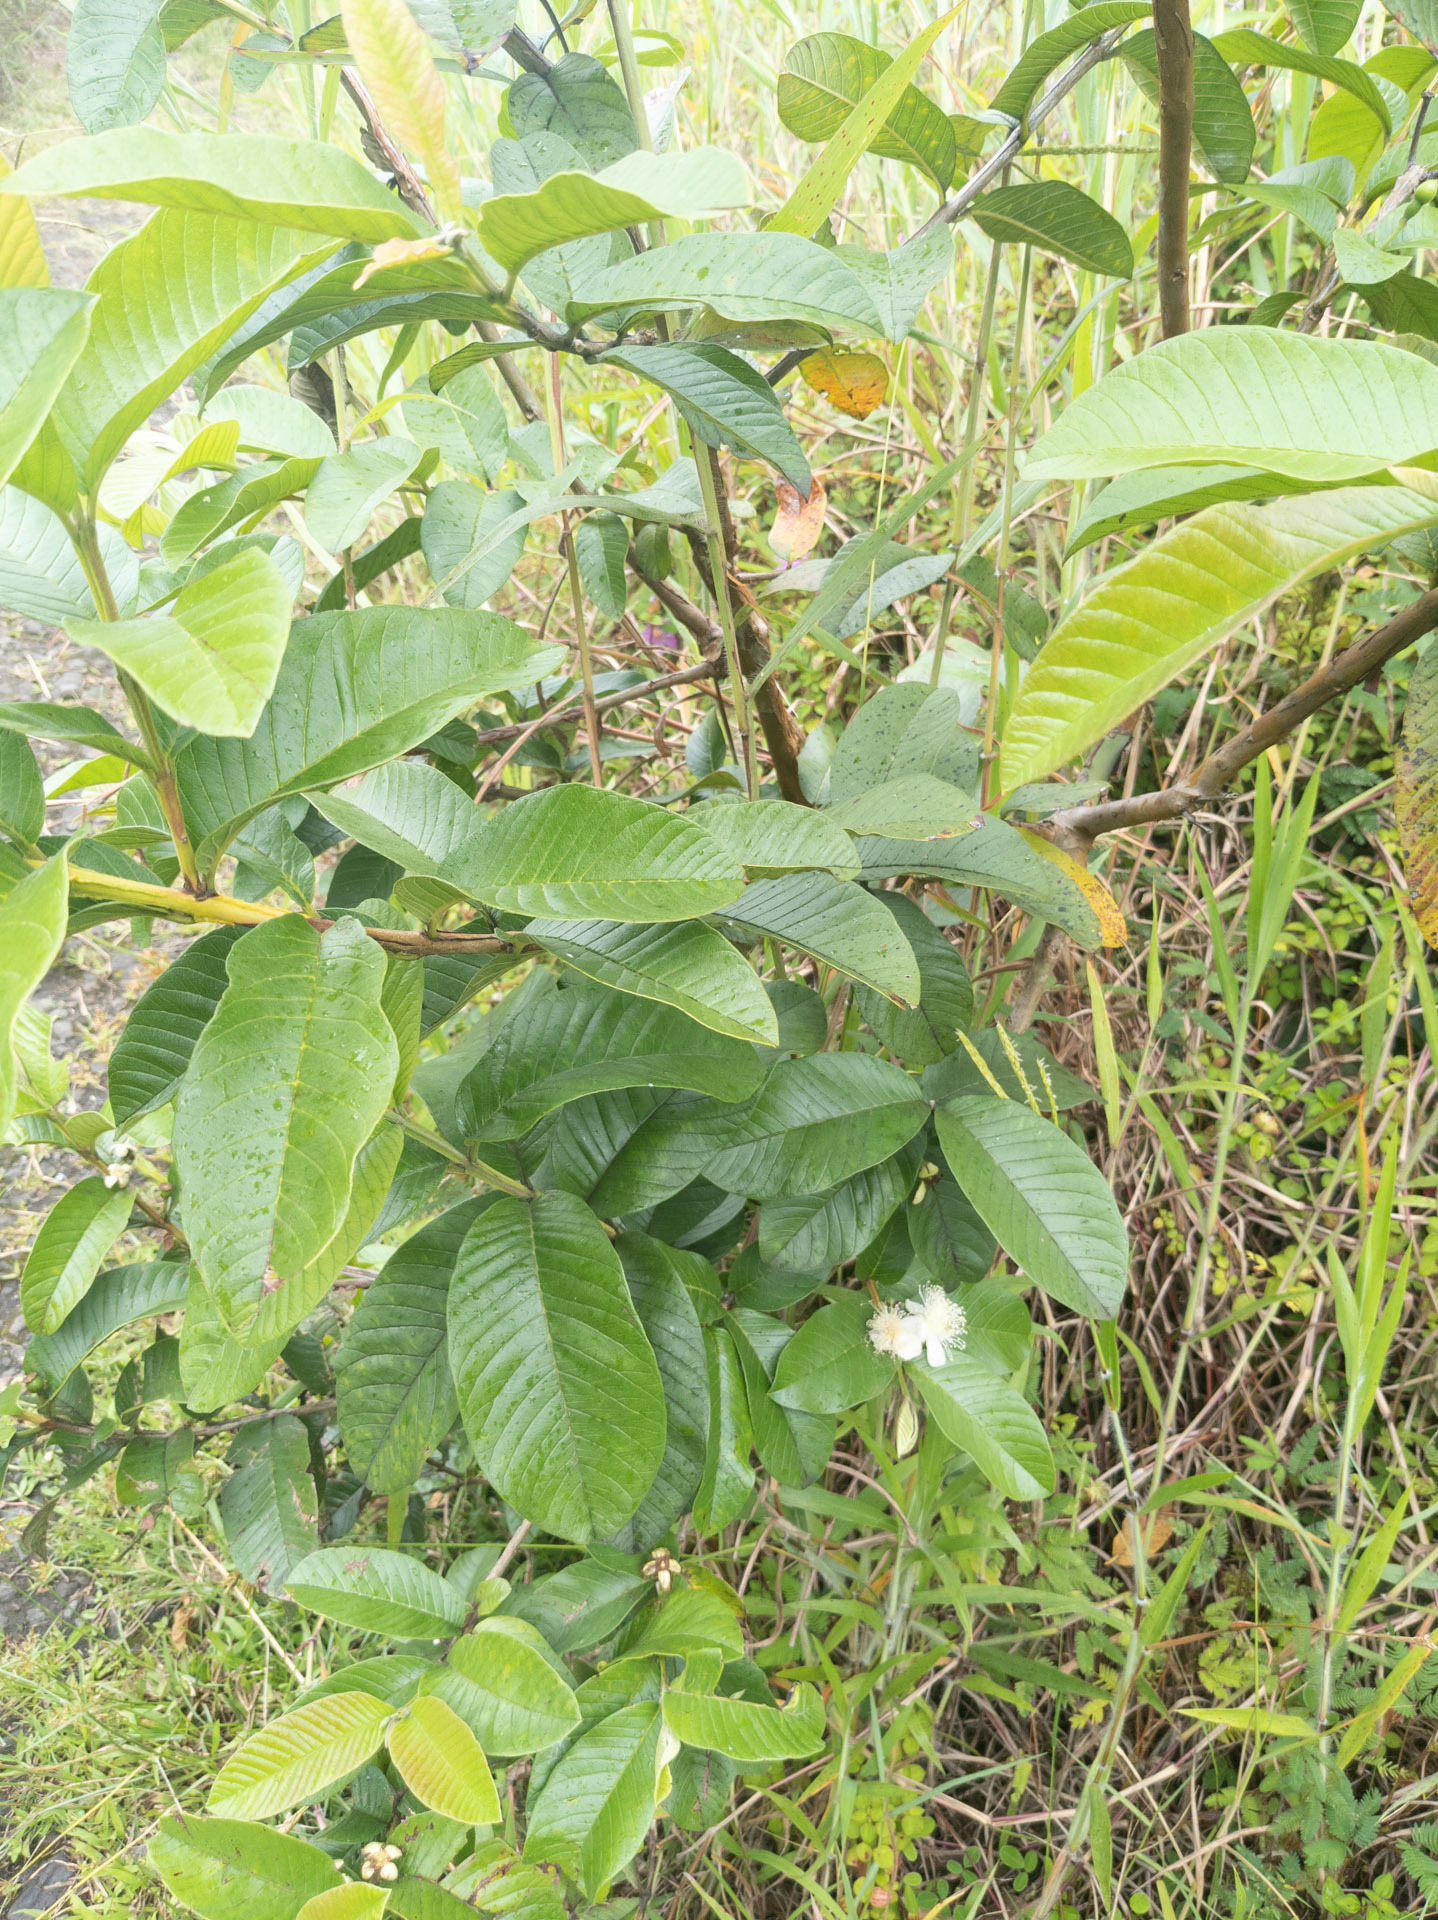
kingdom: Plantae
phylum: Tracheophyta
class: Magnoliopsida
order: Myrtales
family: Myrtaceae
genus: Psidium
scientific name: Psidium guajava
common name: Guava
